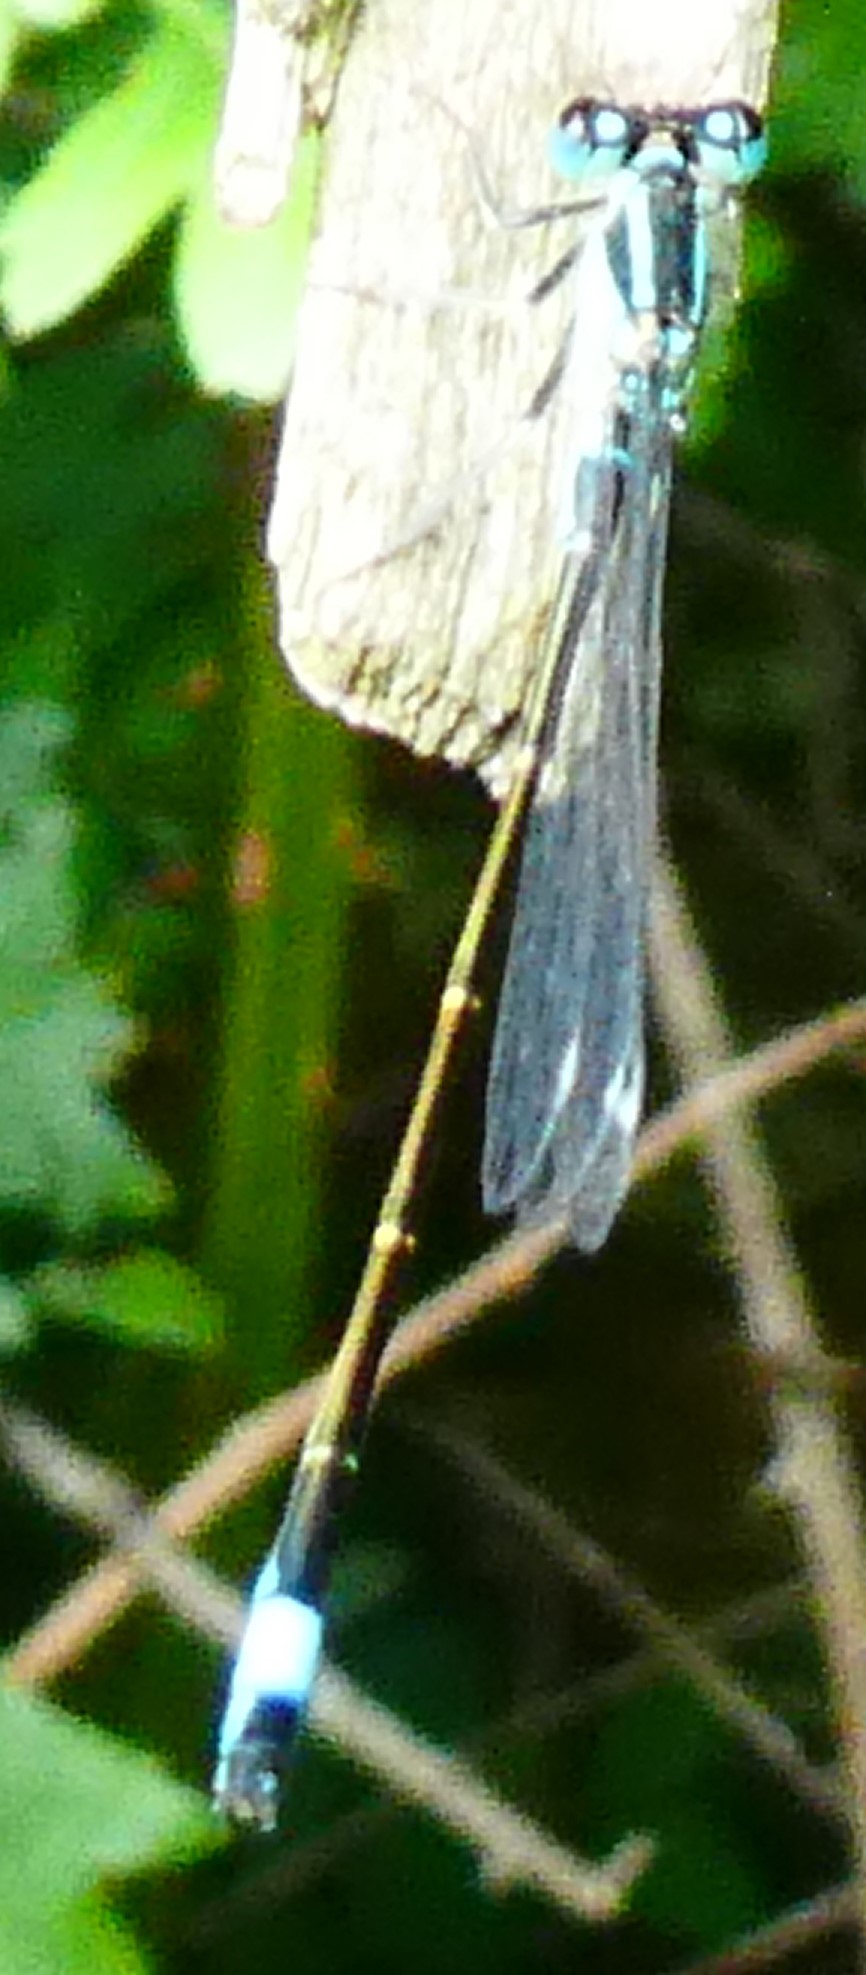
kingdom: Animalia
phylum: Arthropoda
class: Insecta
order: Odonata
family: Coenagrionidae
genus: Ischnura
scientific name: Ischnura elegans
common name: Blue-tailed damselfly
